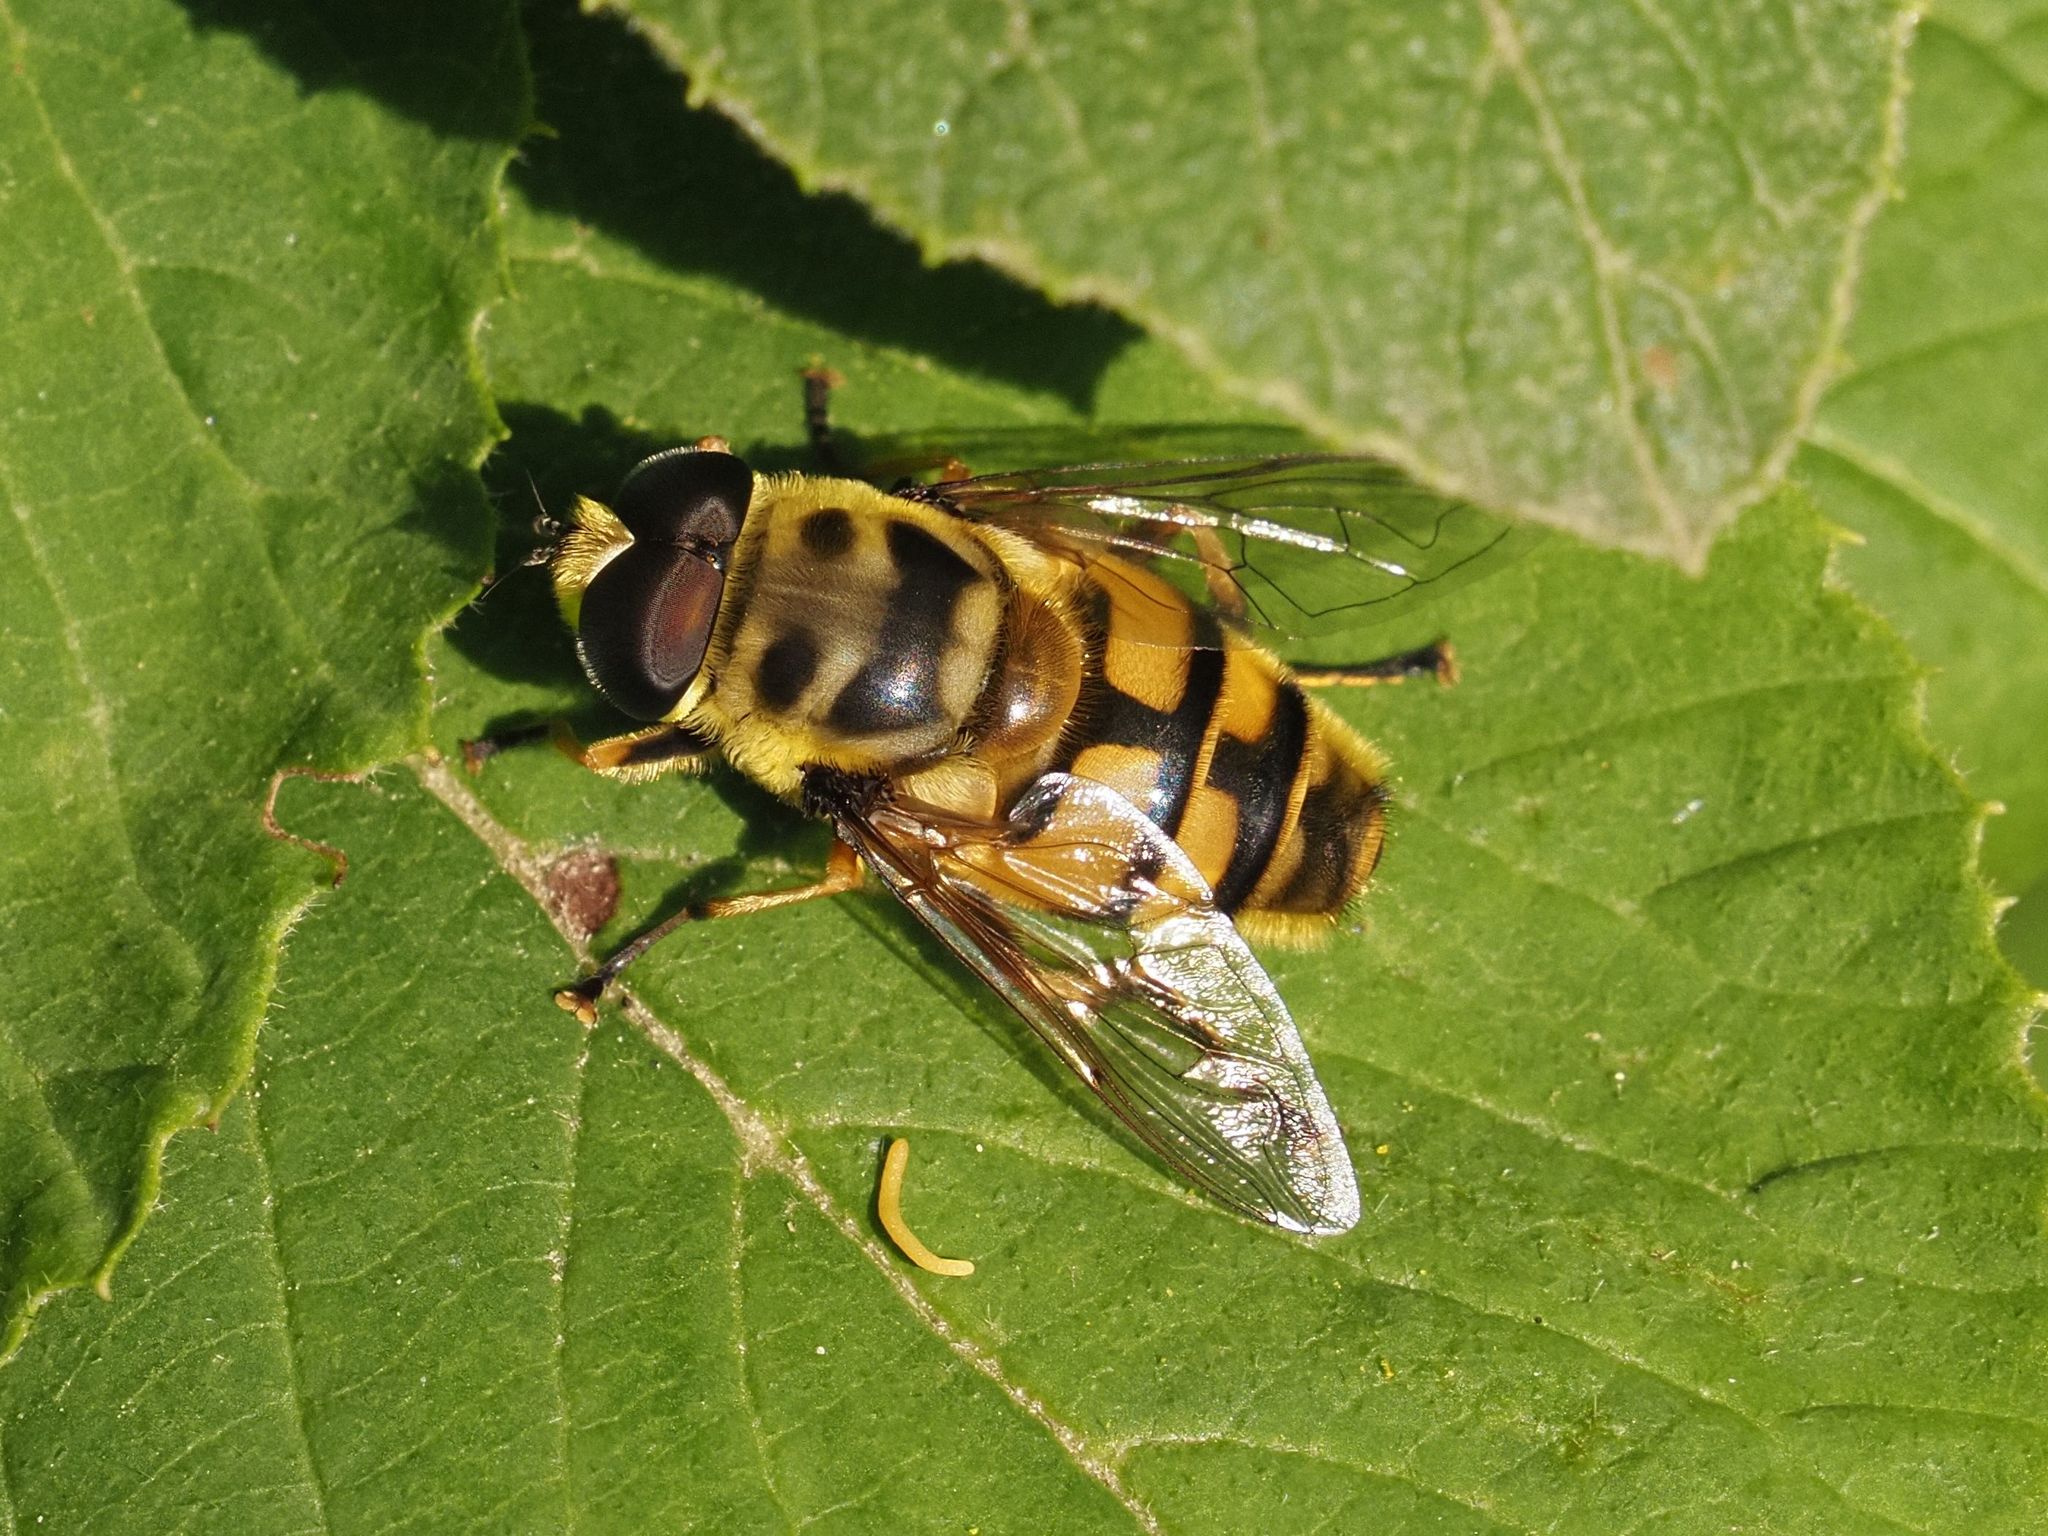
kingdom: Animalia
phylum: Arthropoda
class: Insecta
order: Diptera
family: Syrphidae
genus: Myathropa
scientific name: Myathropa florea
